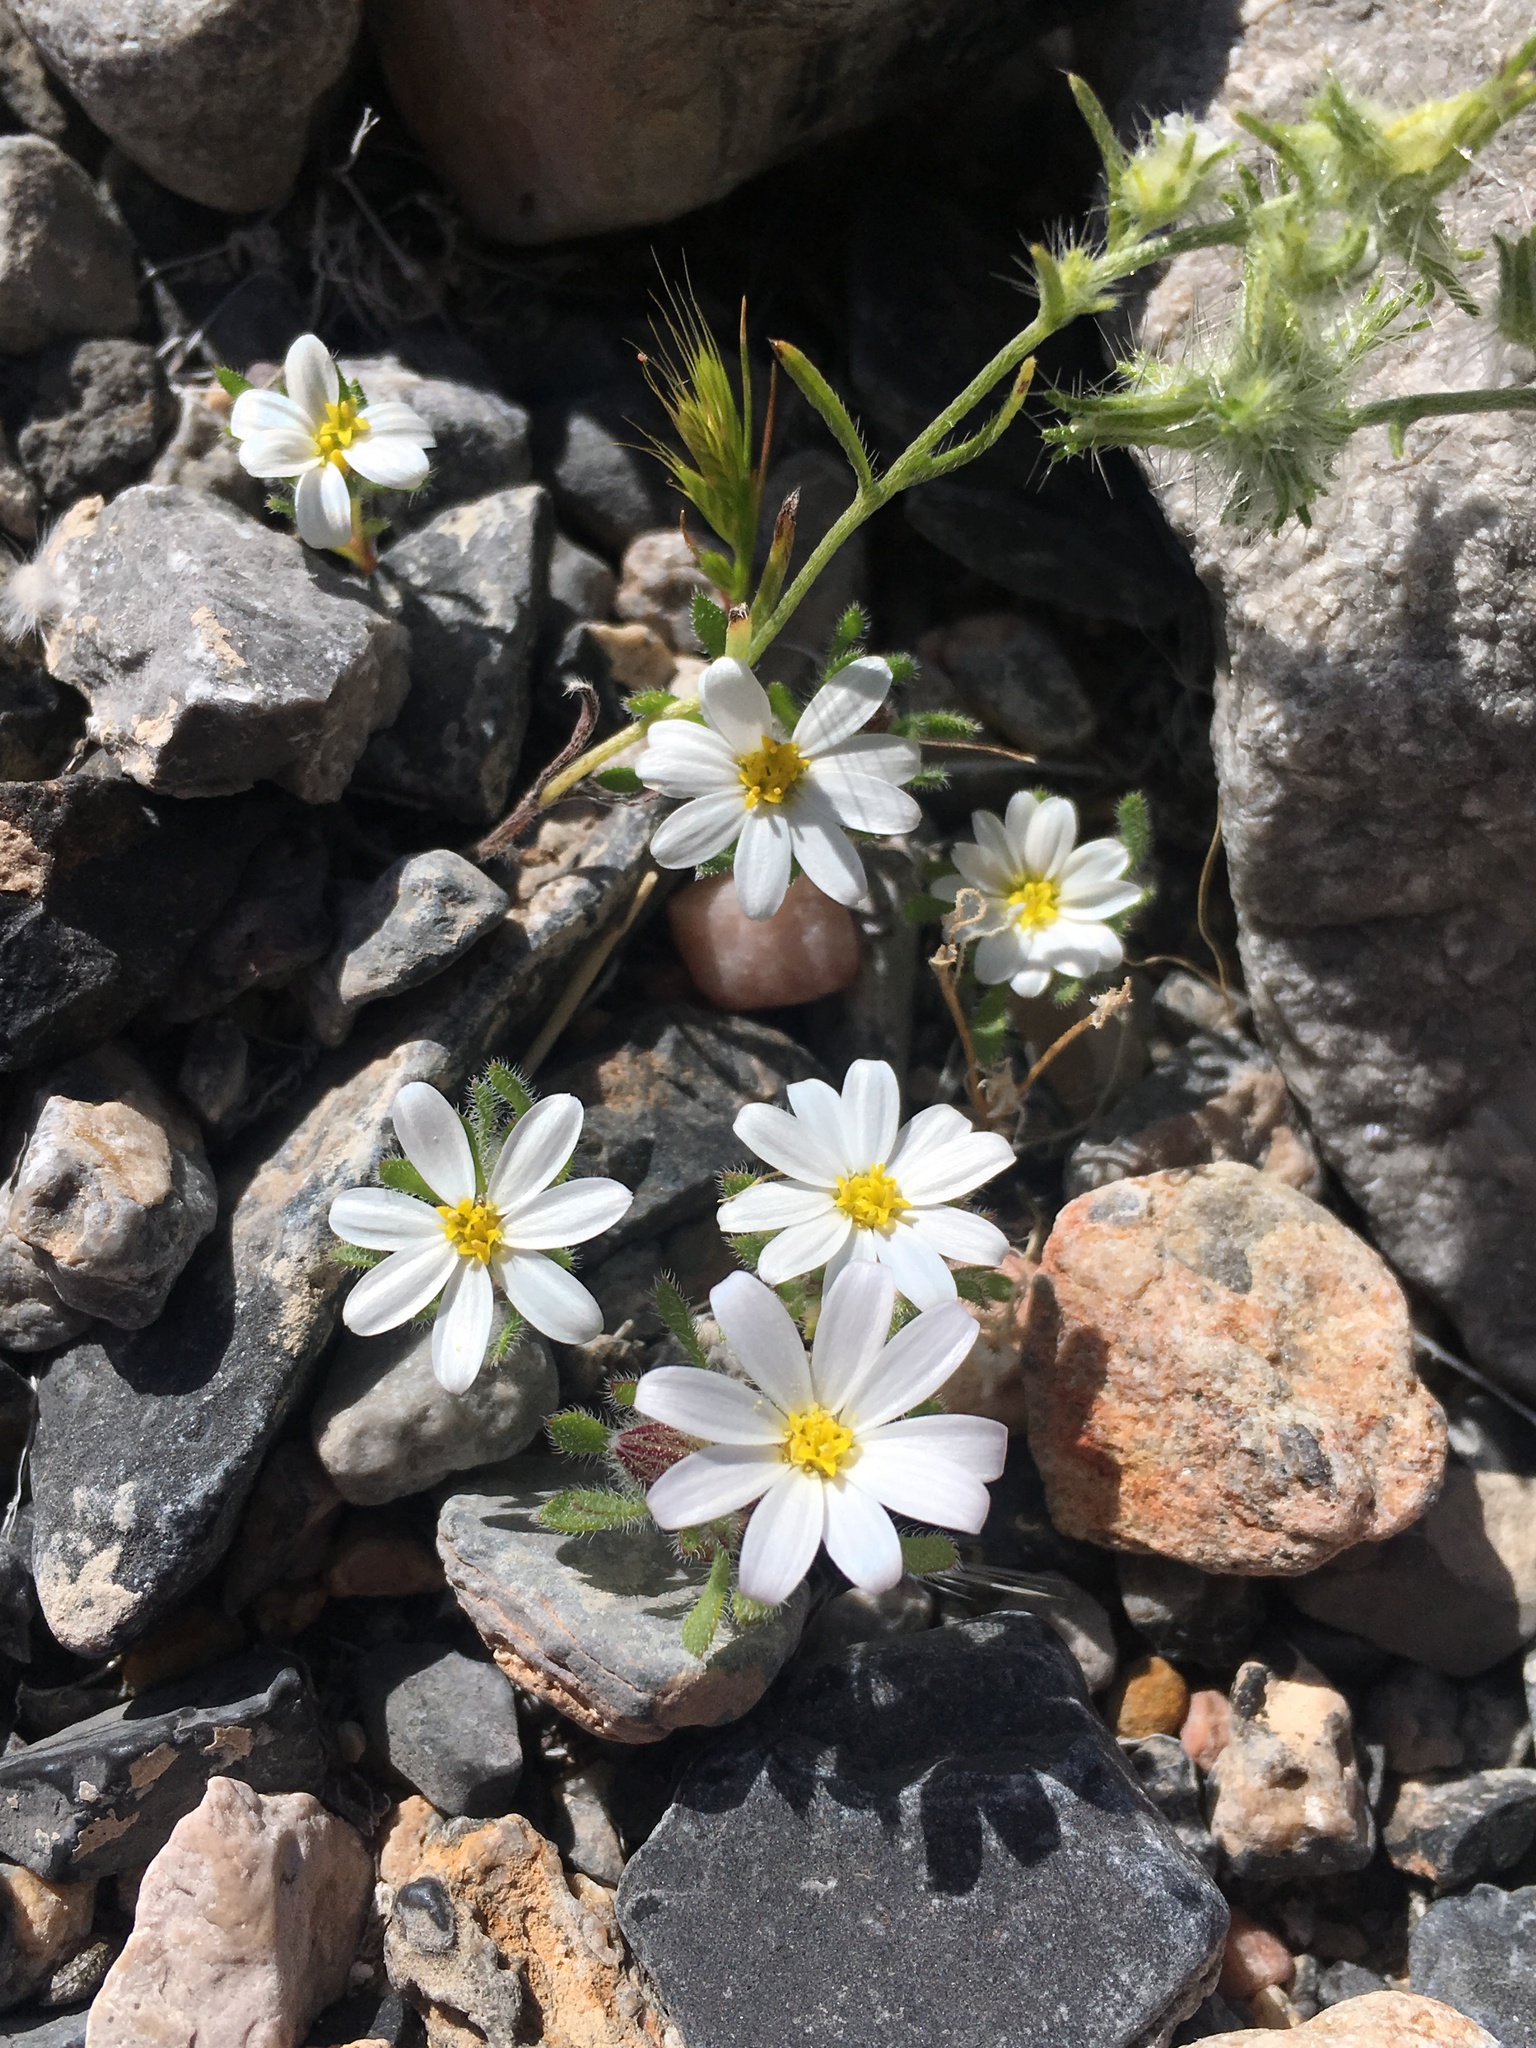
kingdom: Plantae
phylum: Tracheophyta
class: Magnoliopsida
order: Asterales
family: Asteraceae
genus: Monoptilon
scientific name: Monoptilon bellioides
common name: Bristly desertstar
